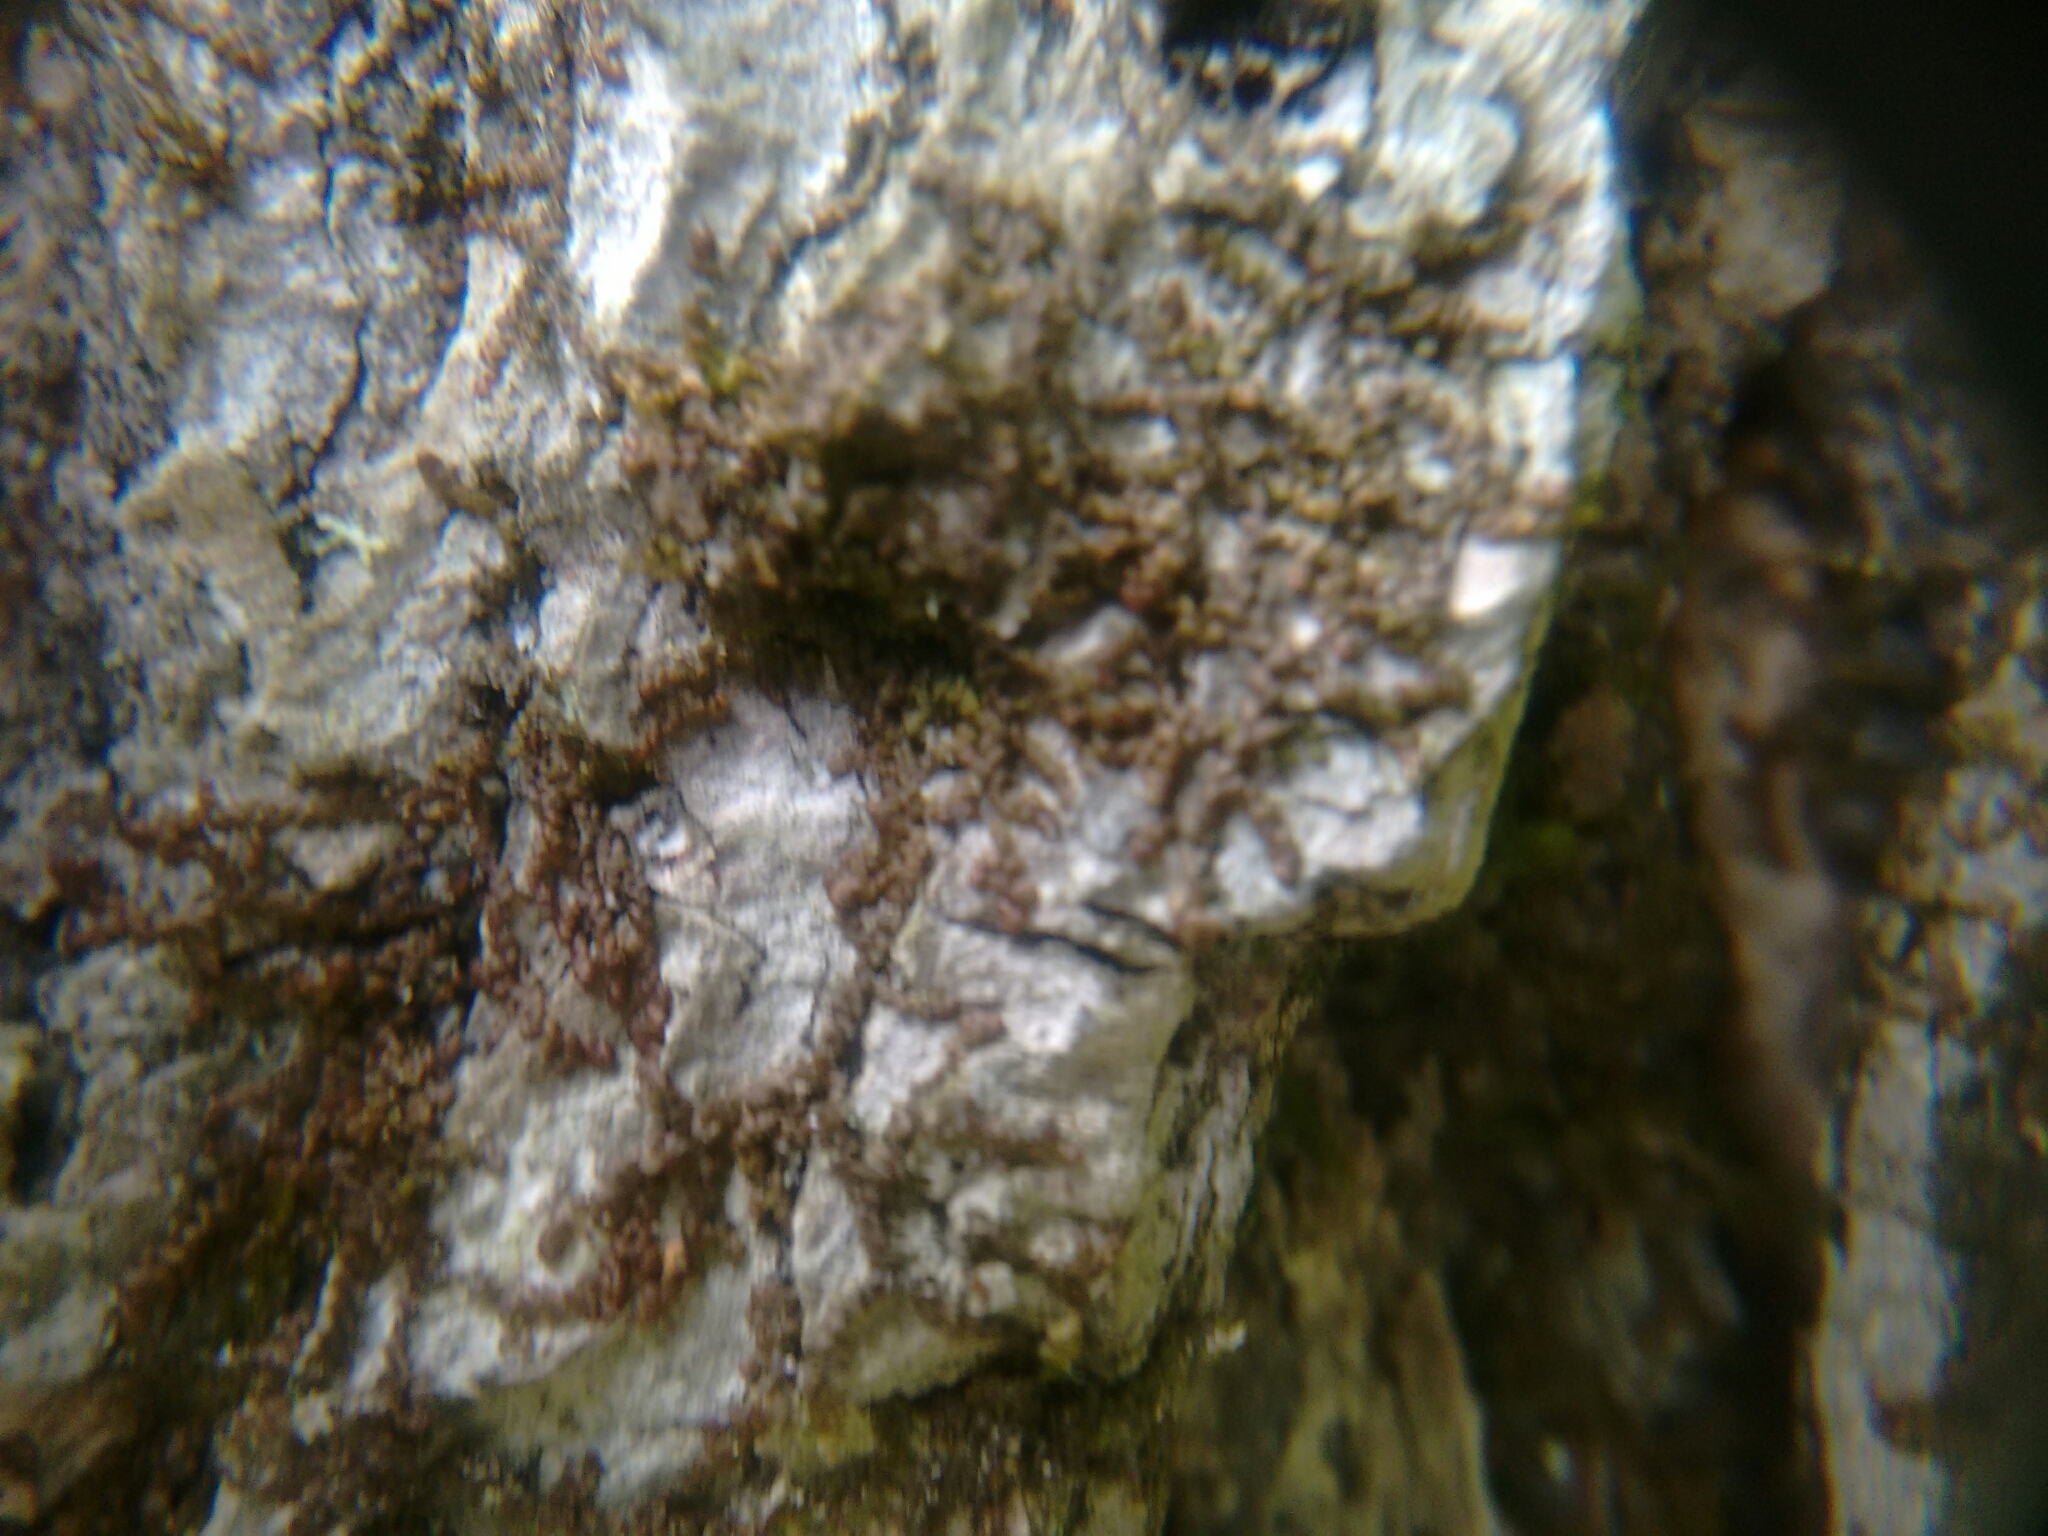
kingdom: Plantae
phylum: Marchantiophyta
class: Jungermanniopsida
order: Porellales
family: Frullaniaceae
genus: Frullania
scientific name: Frullania eboracensis
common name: New york scalewort
